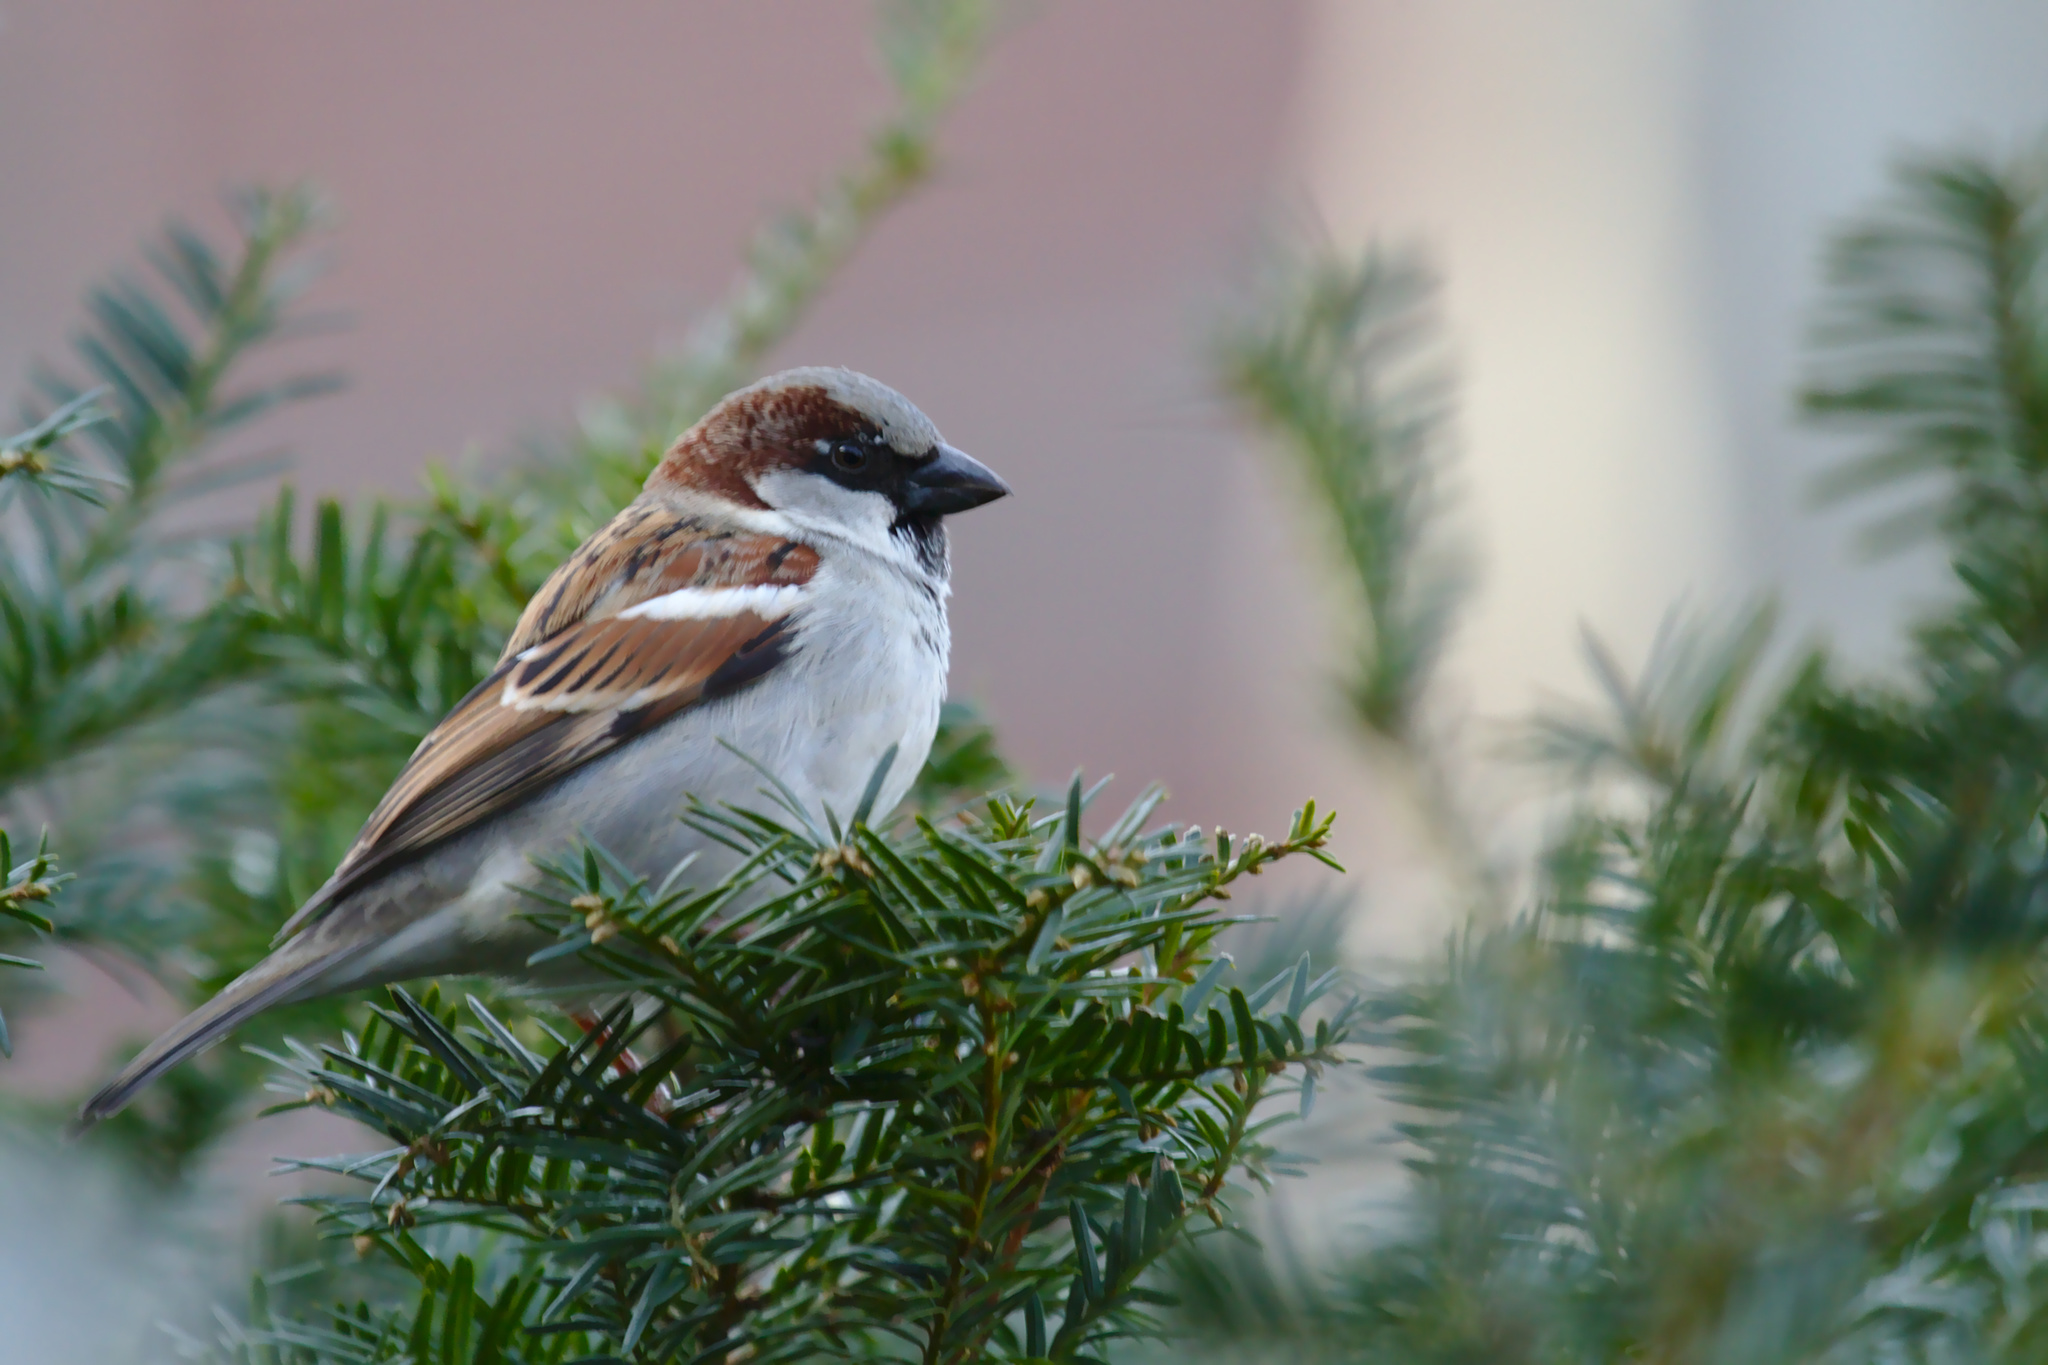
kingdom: Animalia
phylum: Chordata
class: Aves
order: Passeriformes
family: Passeridae
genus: Passer
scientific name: Passer domesticus
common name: House sparrow
